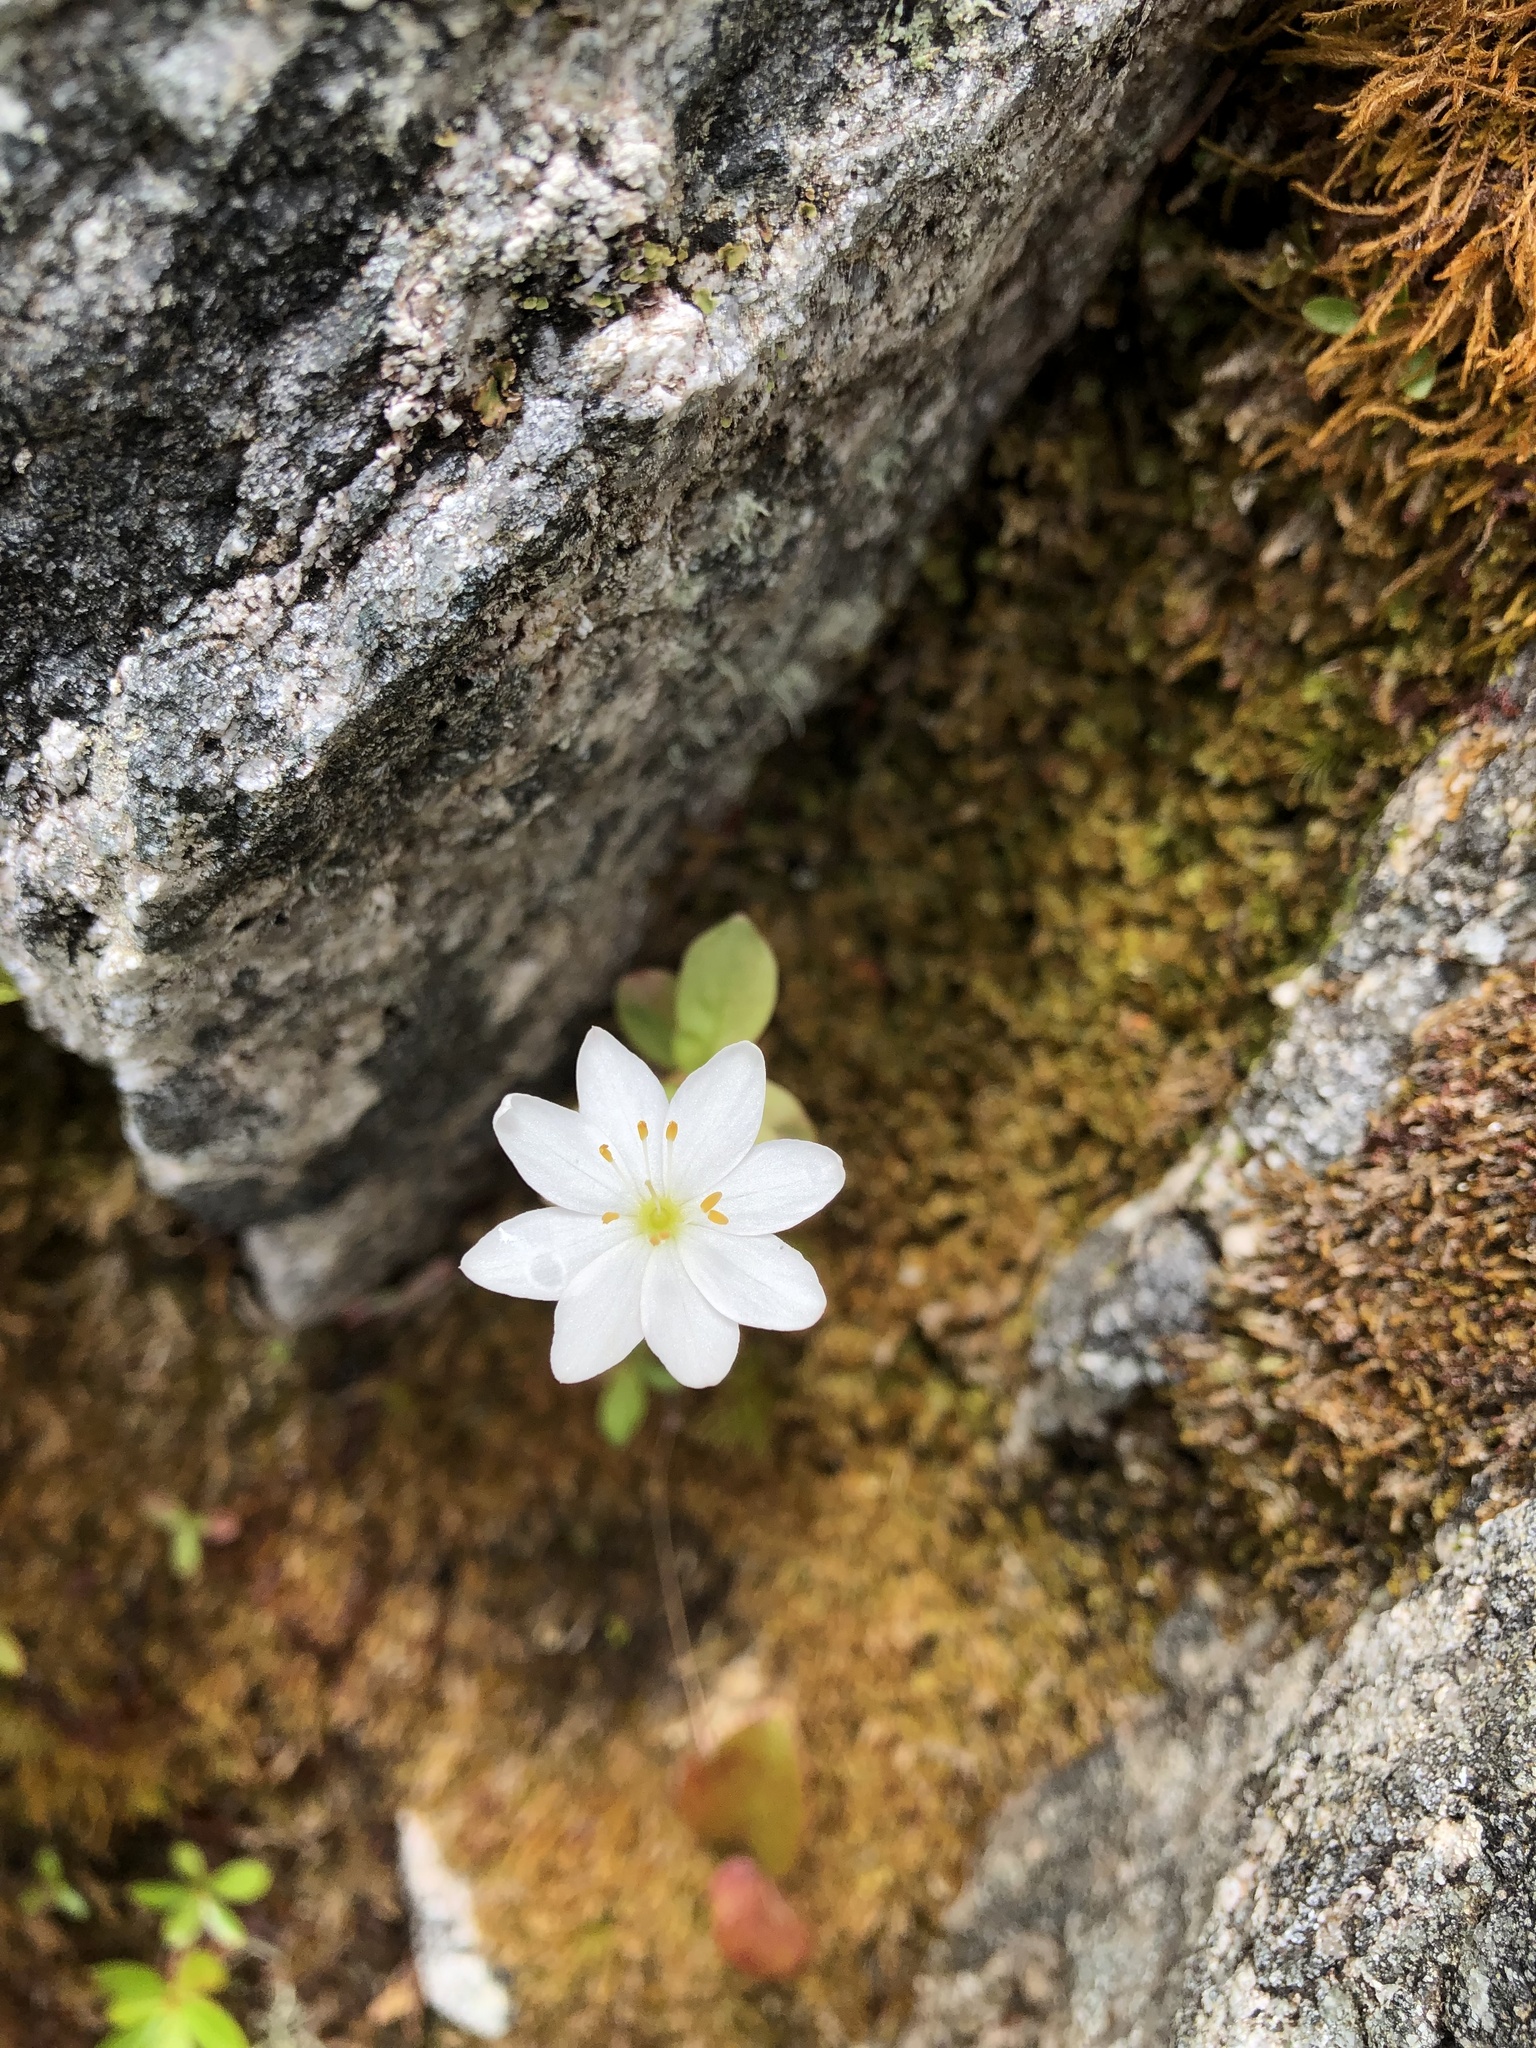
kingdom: Plantae
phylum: Tracheophyta
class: Magnoliopsida
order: Ericales
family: Primulaceae
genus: Lysimachia
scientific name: Lysimachia europaea
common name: Arctic starflower
